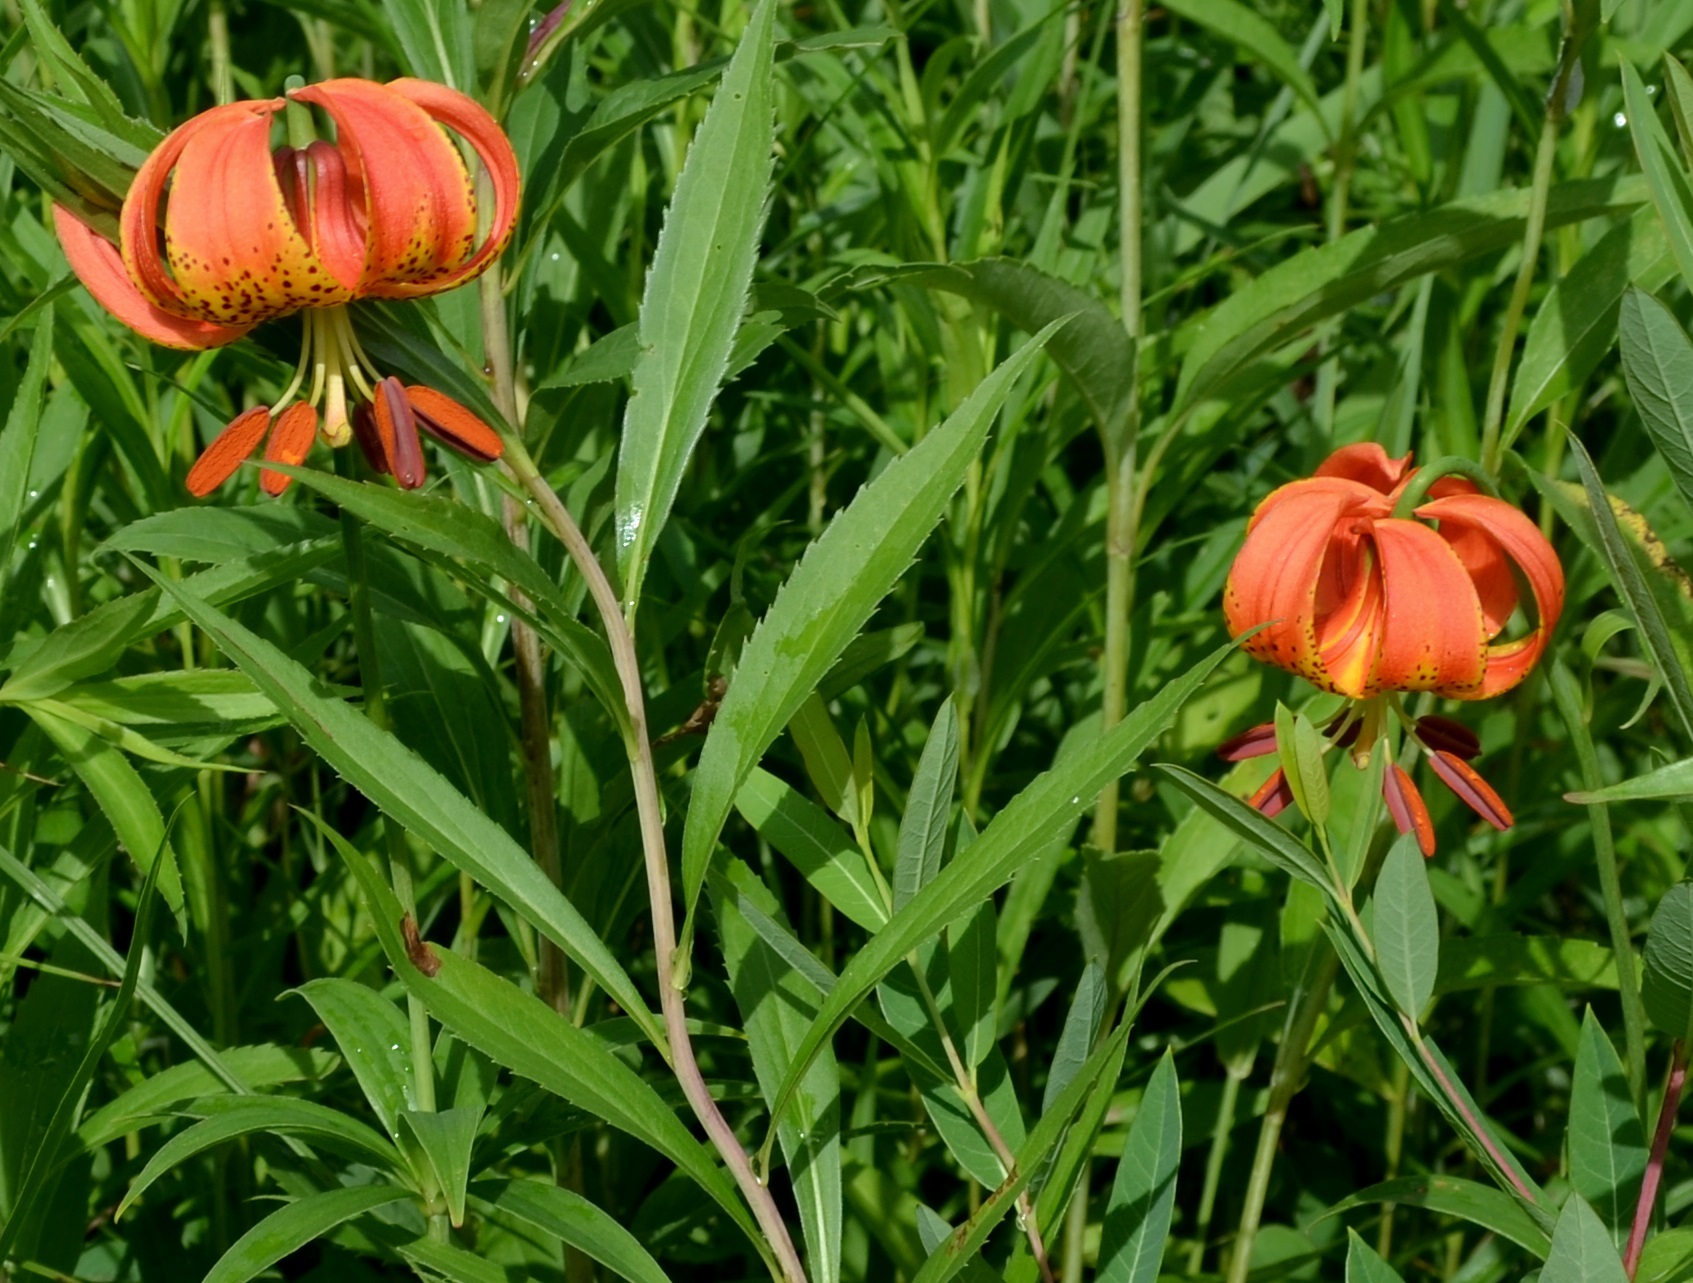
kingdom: Plantae
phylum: Tracheophyta
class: Liliopsida
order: Liliales
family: Liliaceae
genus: Lilium
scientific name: Lilium michiganense
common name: Michigan lily
